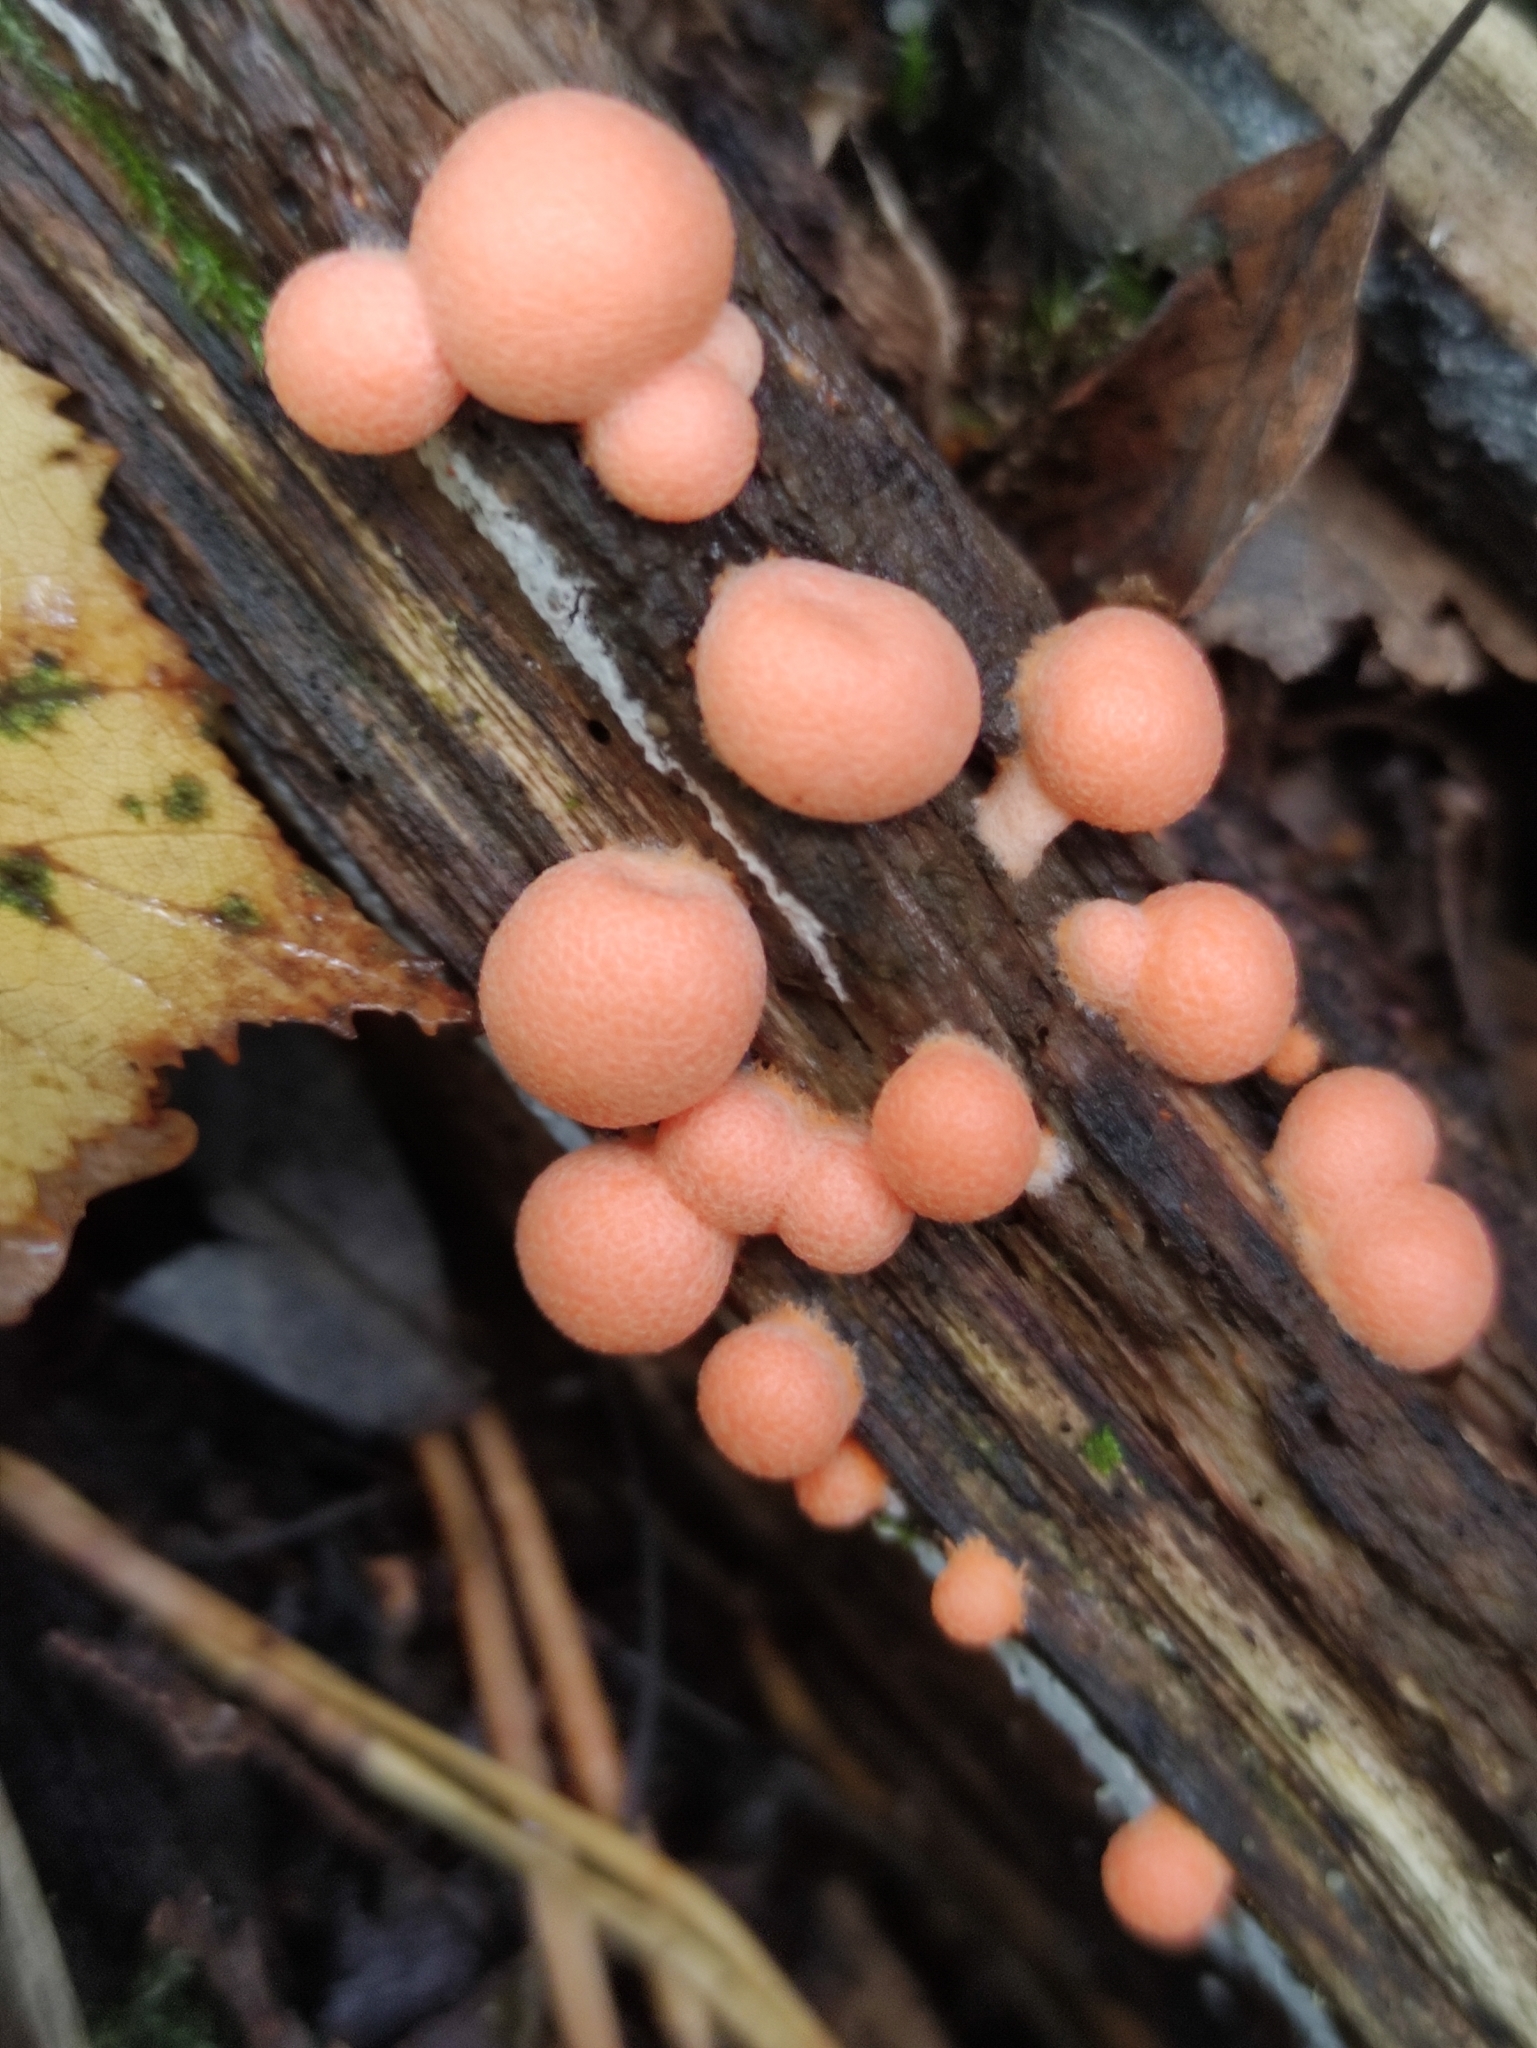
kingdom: Protozoa
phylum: Mycetozoa
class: Myxomycetes
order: Cribrariales
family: Tubiferaceae
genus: Lycogala
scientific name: Lycogala epidendrum
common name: Wolf's milk
